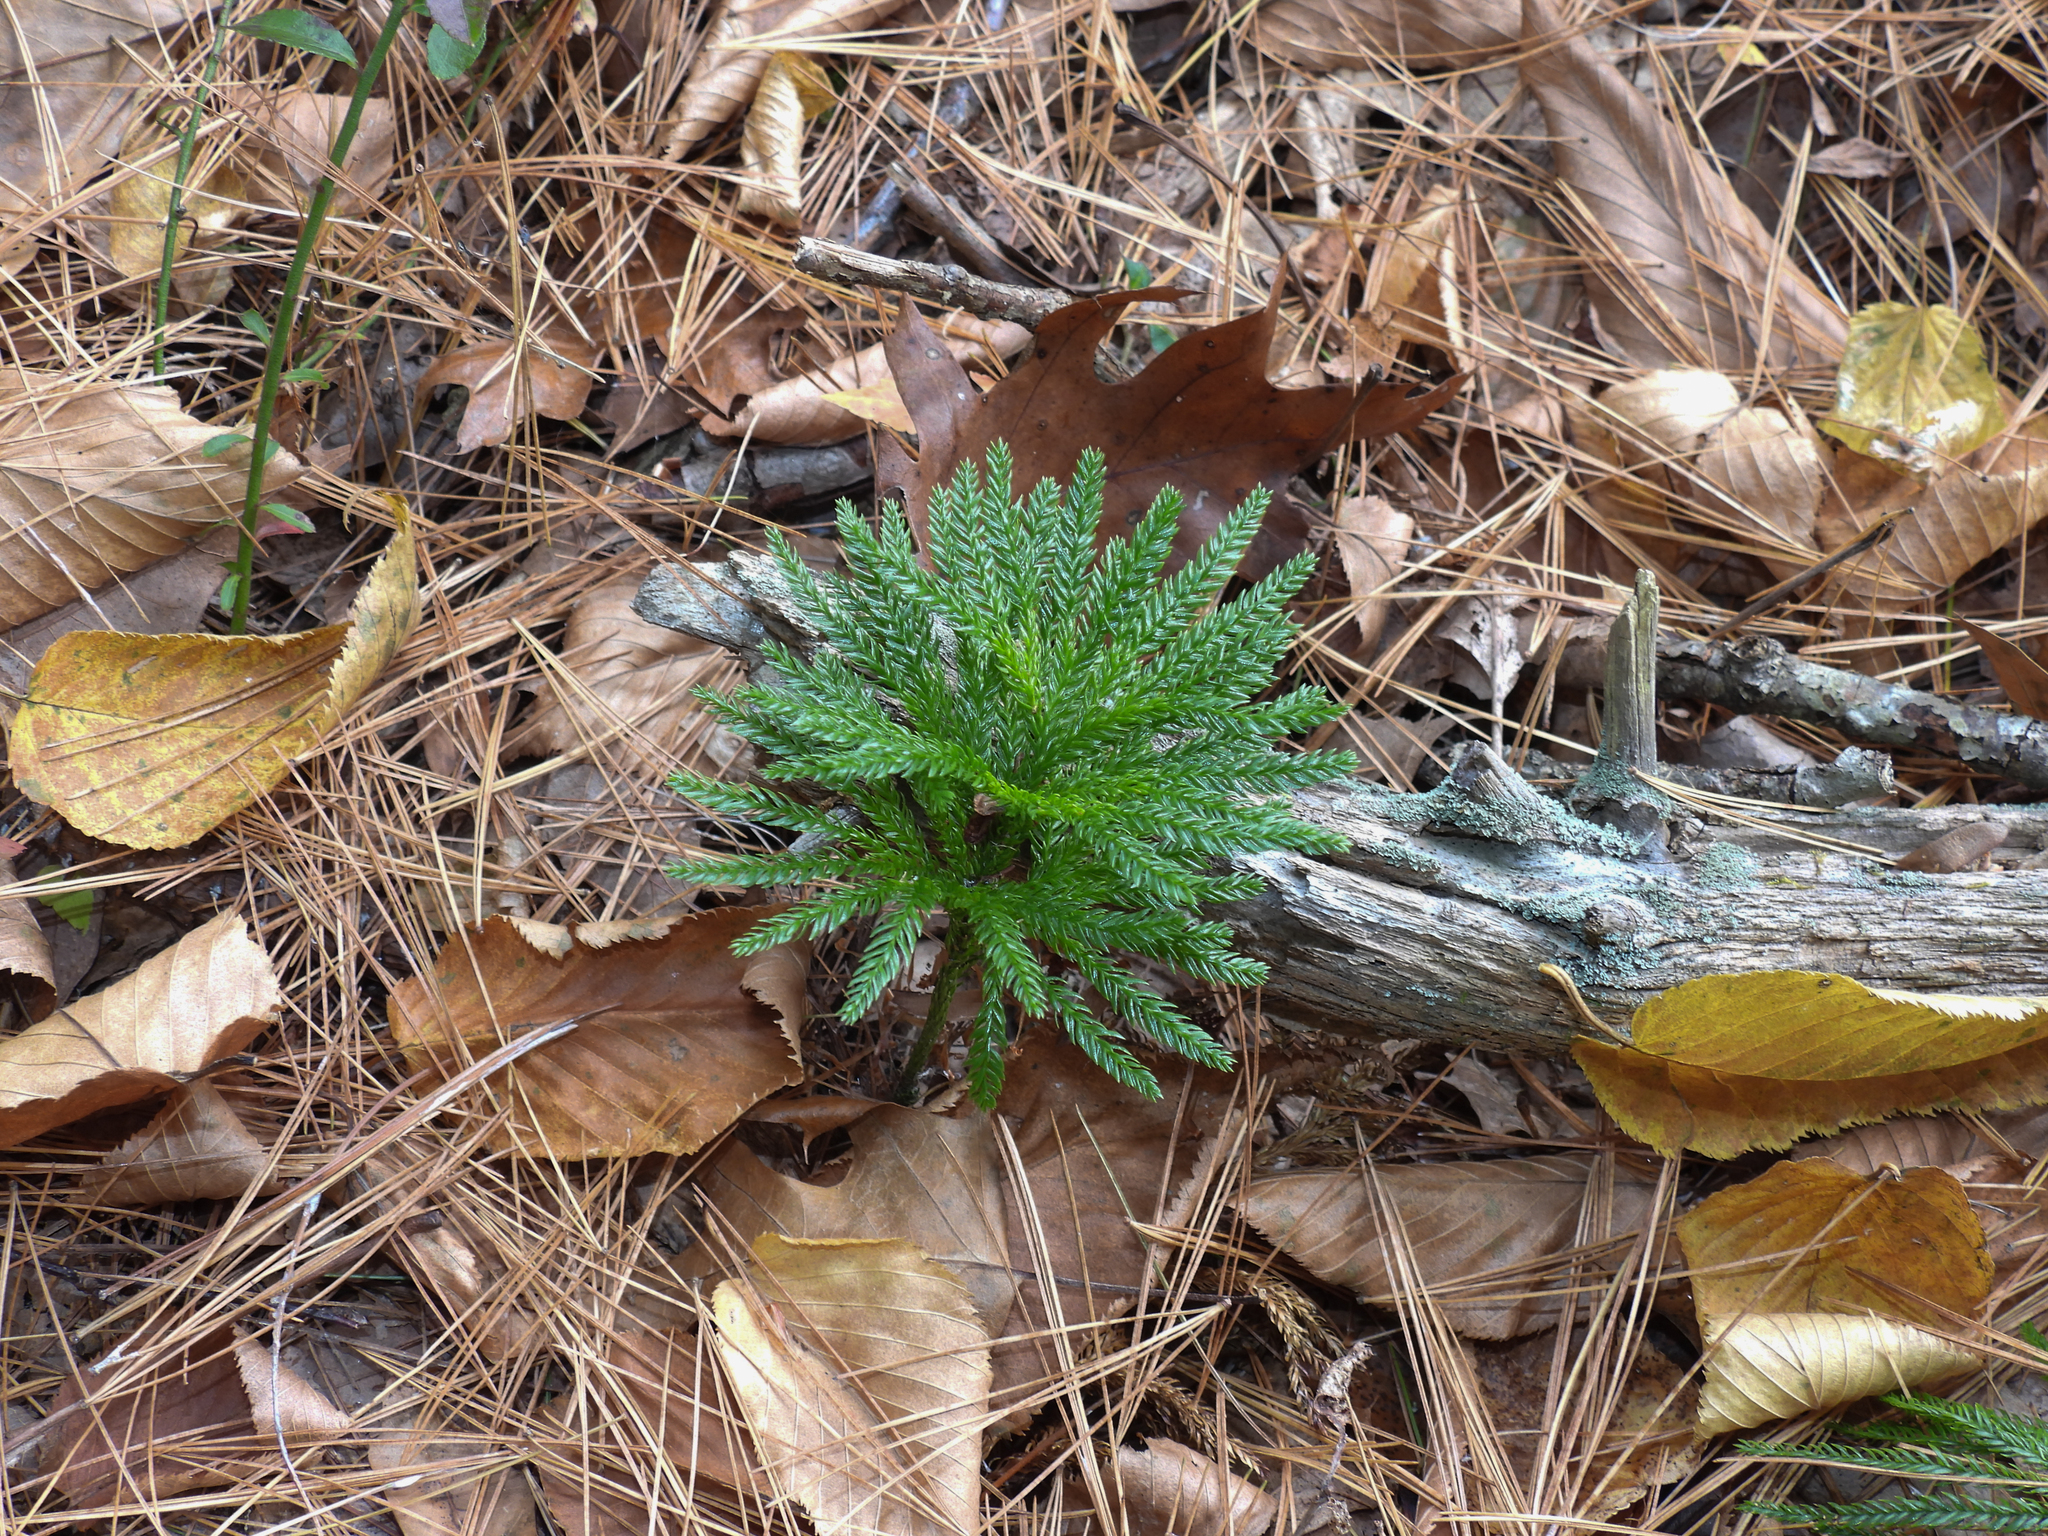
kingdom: Plantae
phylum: Tracheophyta
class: Lycopodiopsida
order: Lycopodiales
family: Lycopodiaceae
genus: Dendrolycopodium
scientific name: Dendrolycopodium obscurum
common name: Common ground-pine
